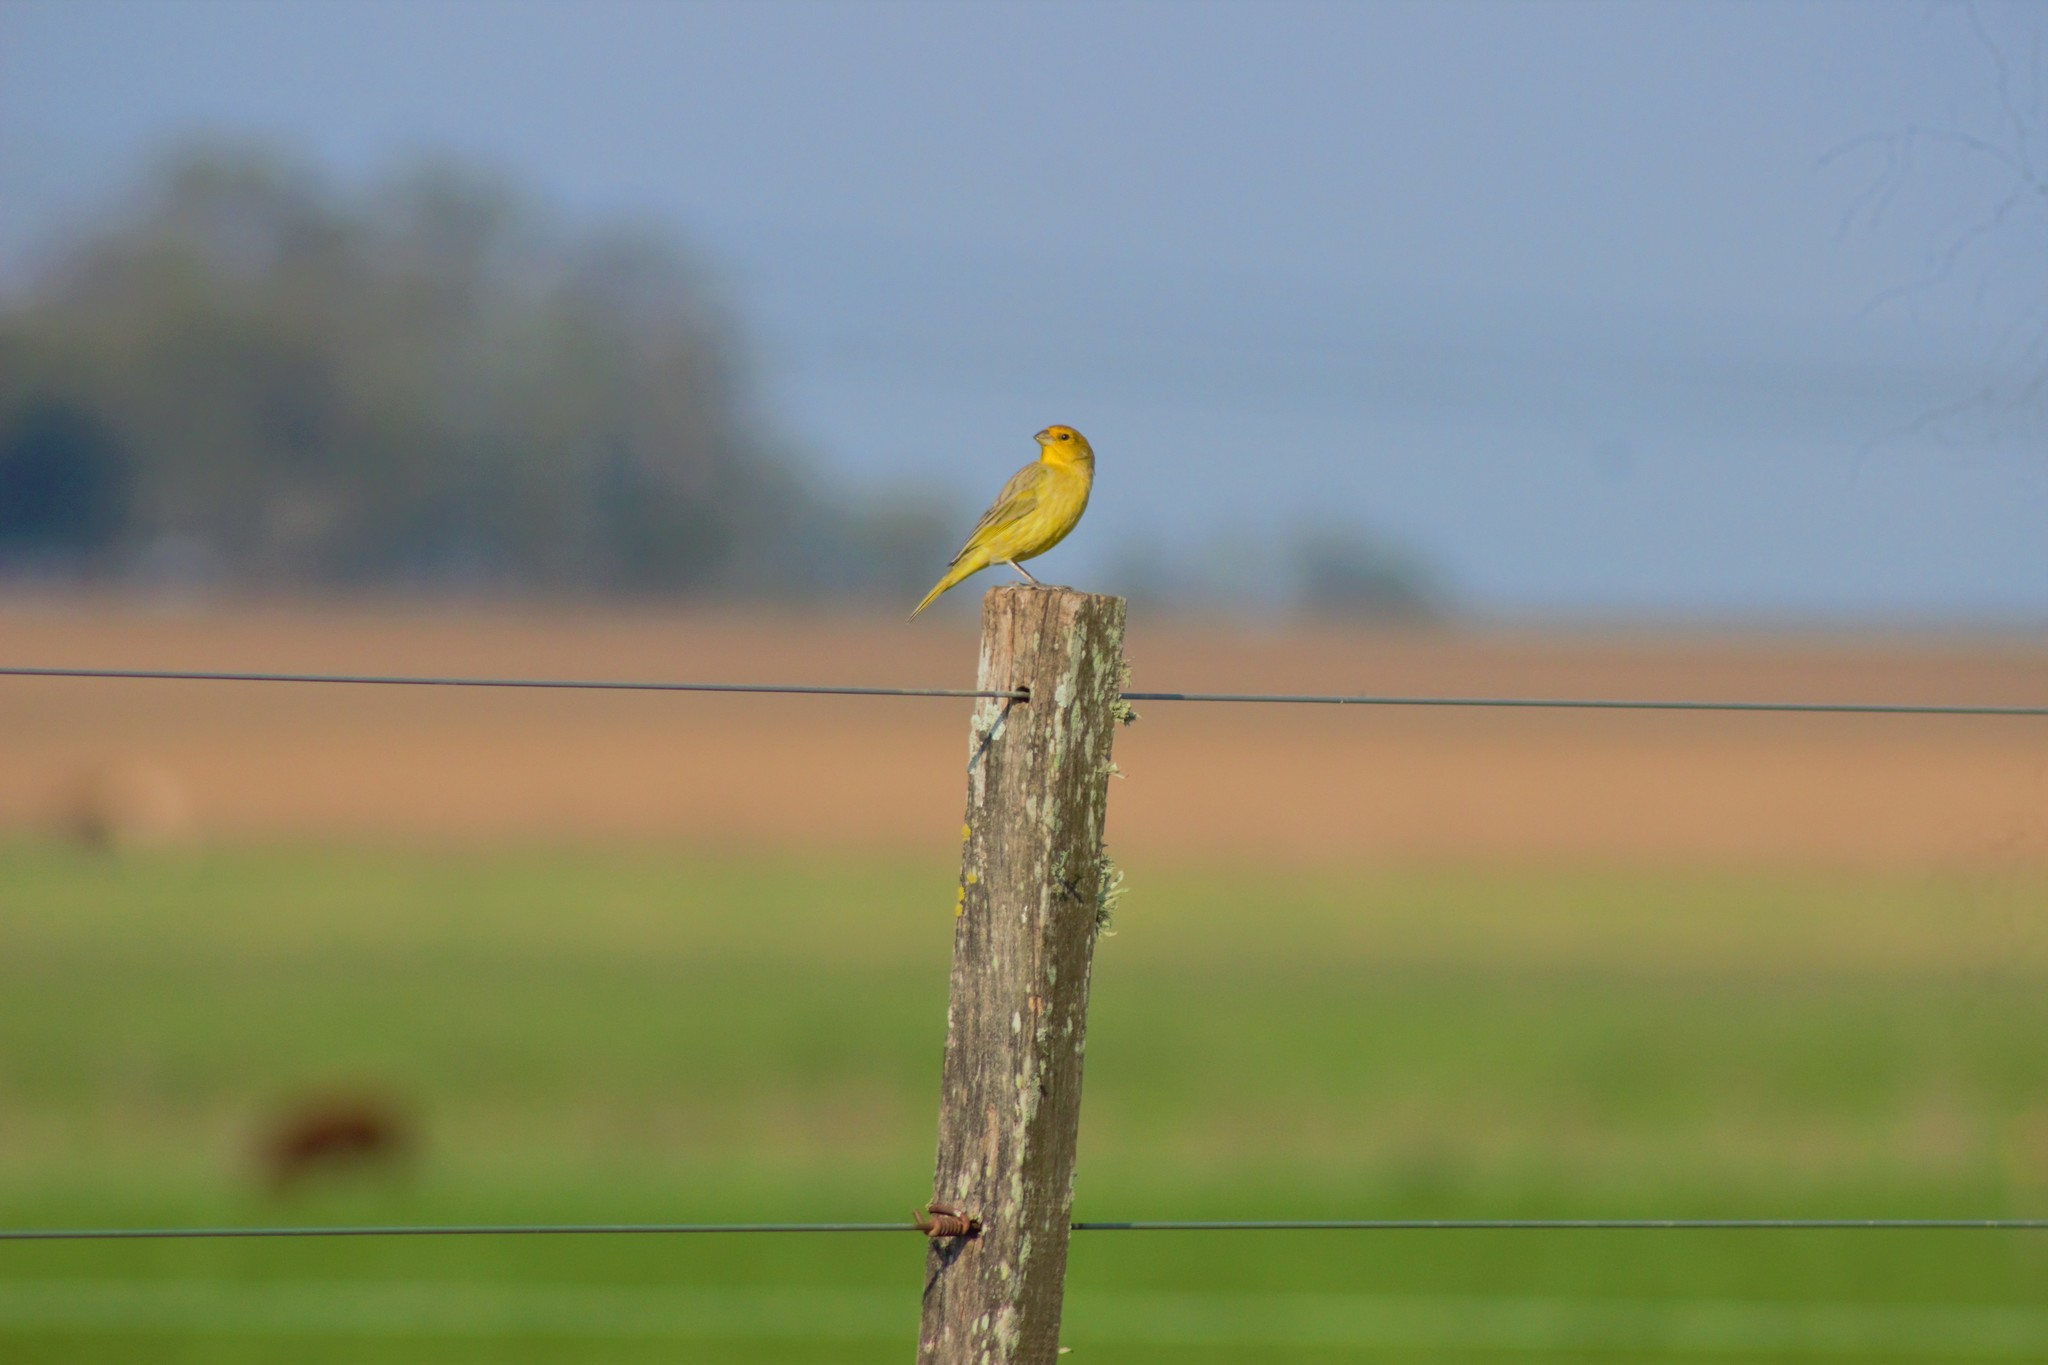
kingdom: Animalia
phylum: Chordata
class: Aves
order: Passeriformes
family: Thraupidae
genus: Sicalis
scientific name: Sicalis flaveola
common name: Saffron finch
